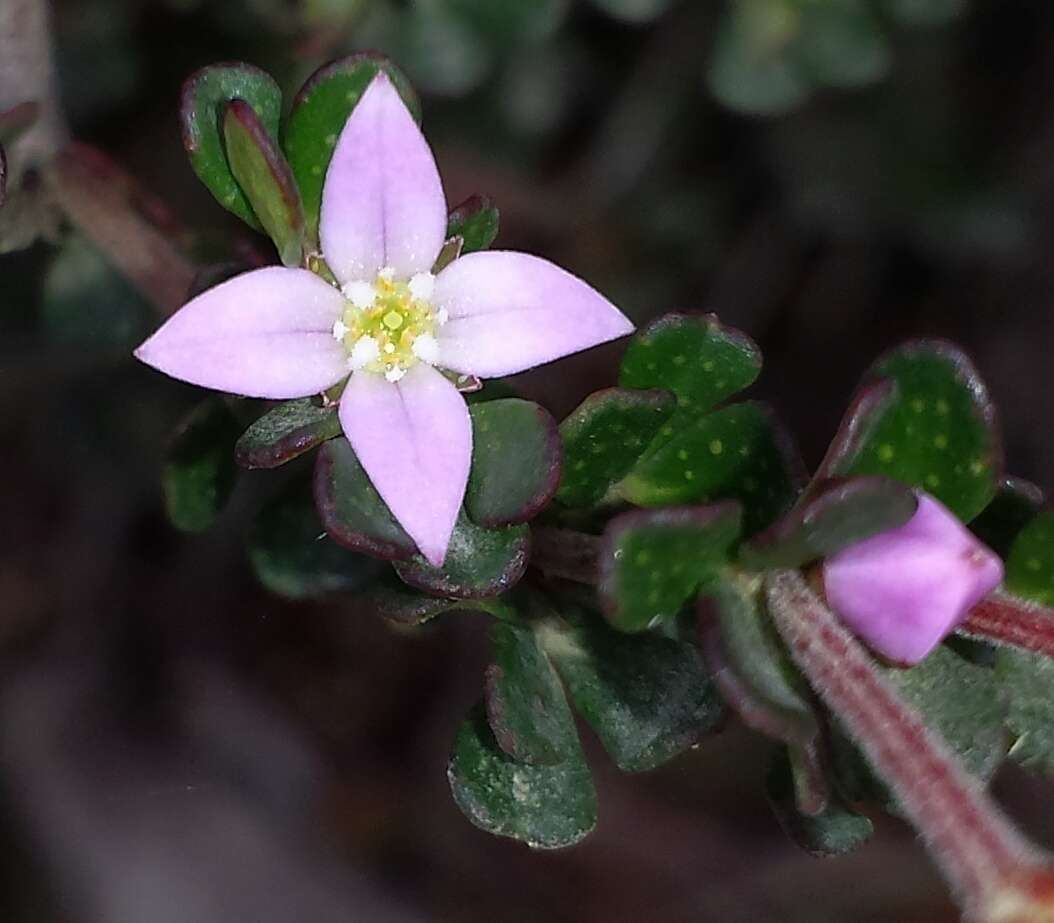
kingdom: Plantae
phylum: Tracheophyta
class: Magnoliopsida
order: Sapindales
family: Rutaceae
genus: Boronia
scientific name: Boronia algida
